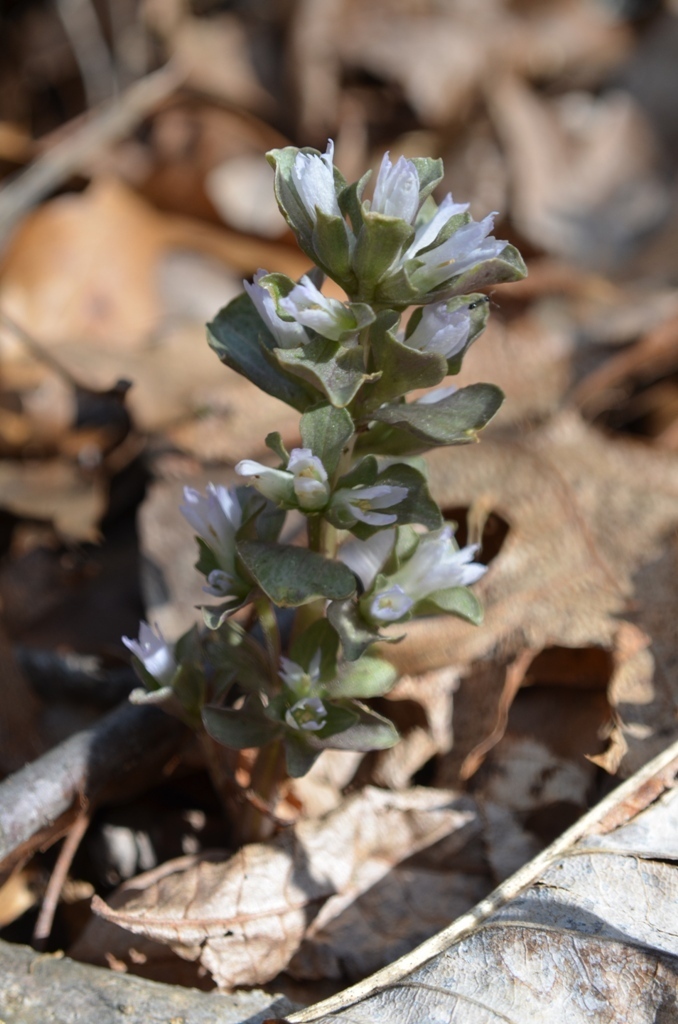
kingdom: Plantae
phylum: Tracheophyta
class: Magnoliopsida
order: Gentianales
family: Gentianaceae
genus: Obolaria
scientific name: Obolaria virginica
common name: Pennywort
